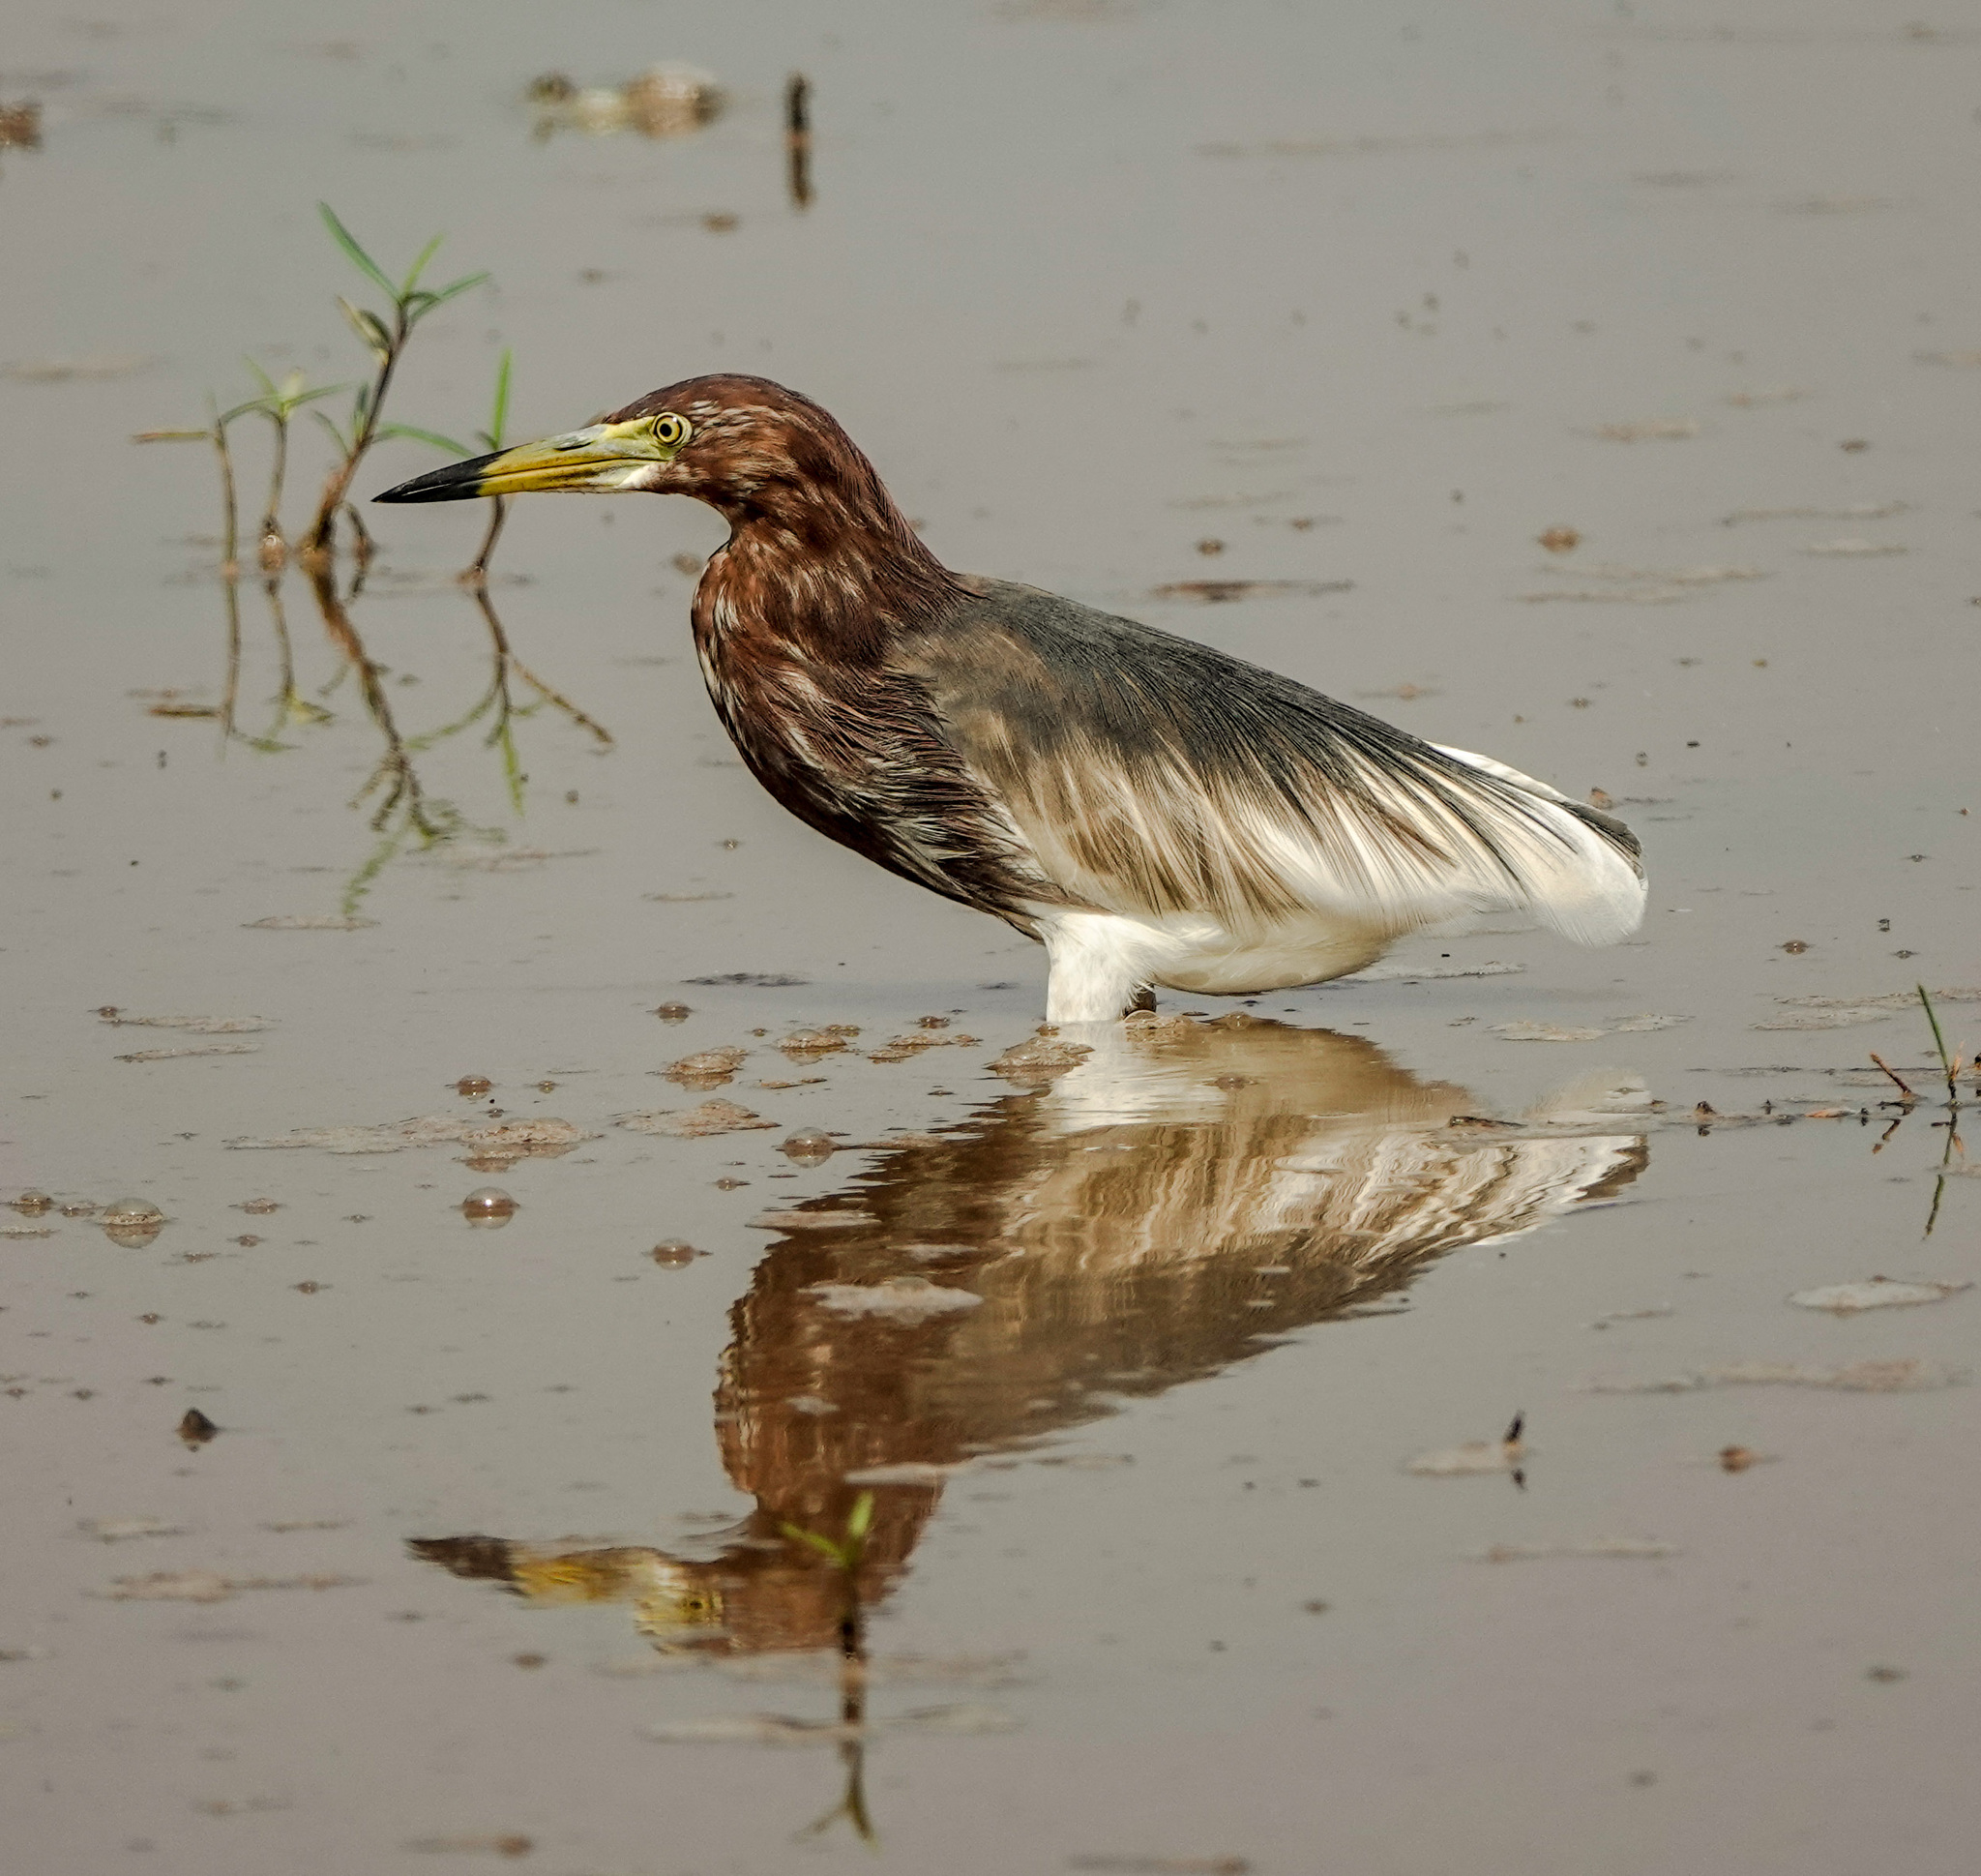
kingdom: Animalia
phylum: Chordata
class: Aves
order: Pelecaniformes
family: Ardeidae
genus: Ardeola
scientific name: Ardeola bacchus
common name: Chinese pond heron
